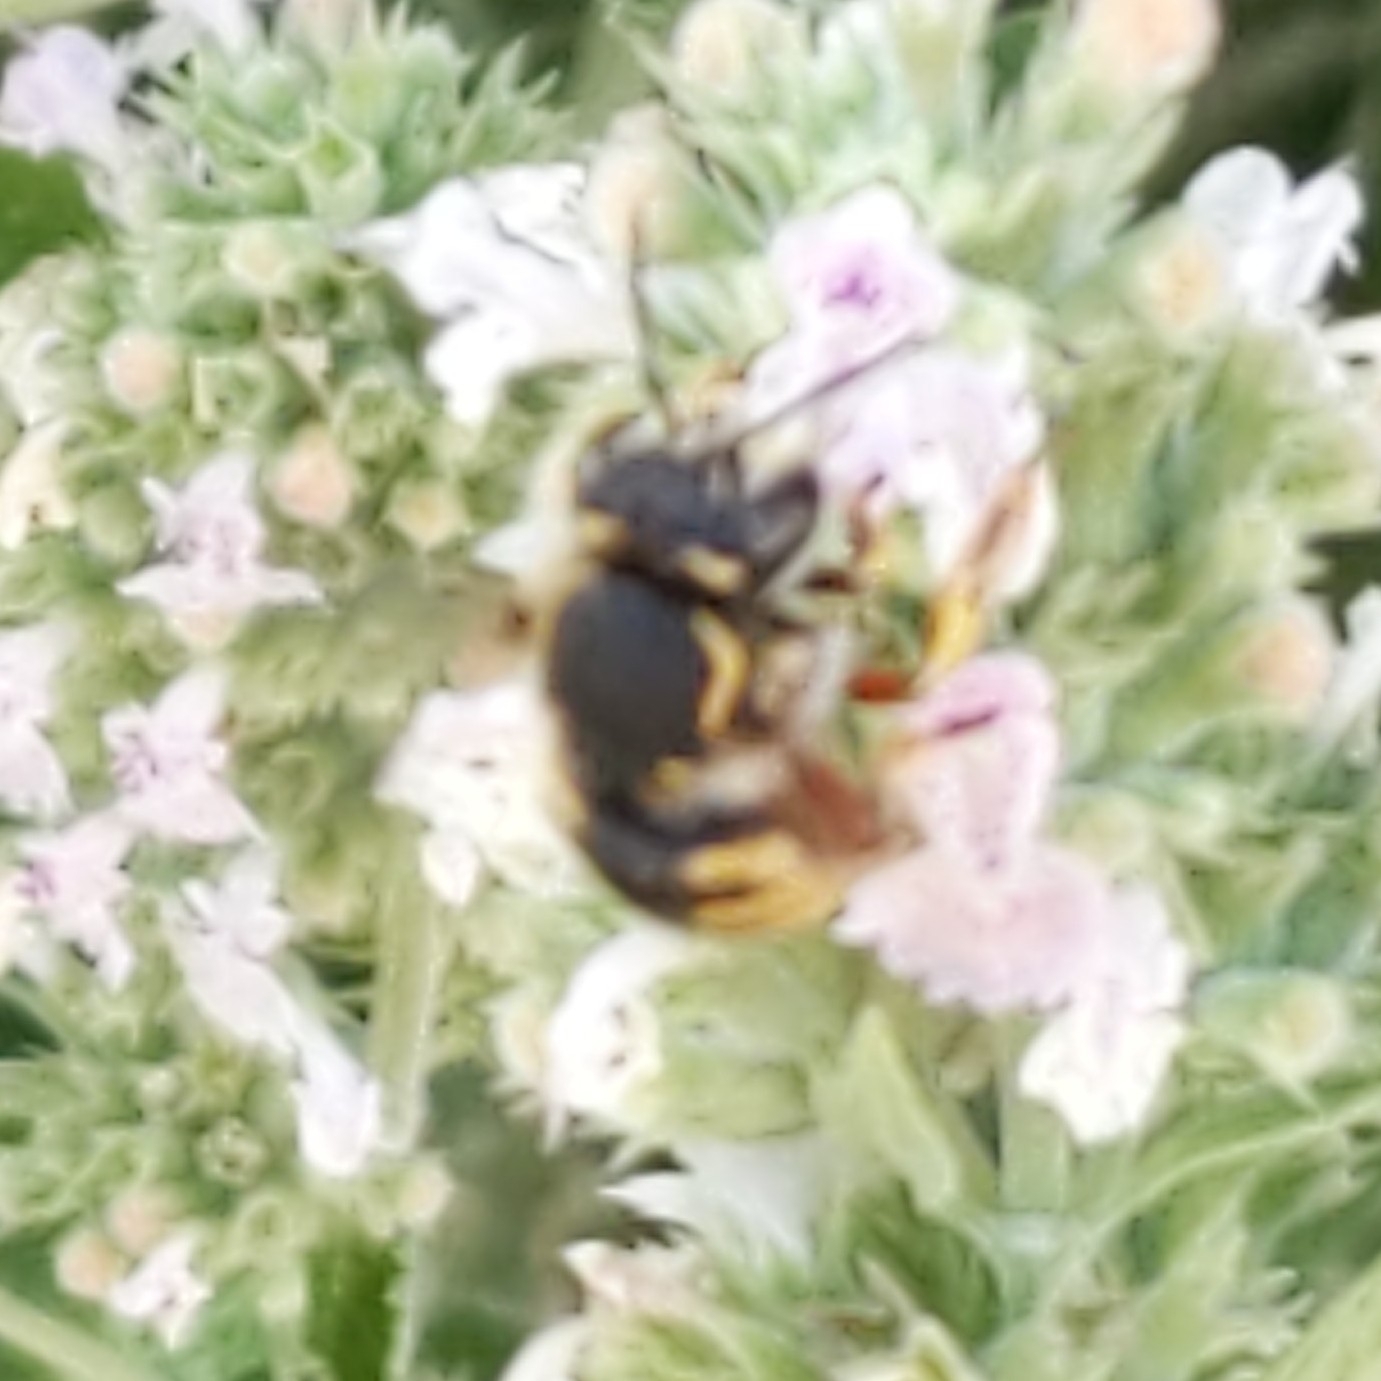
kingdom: Animalia
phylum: Arthropoda
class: Insecta
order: Hymenoptera
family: Megachilidae
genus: Anthidium
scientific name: Anthidium manicatum
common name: Wool carder bee
